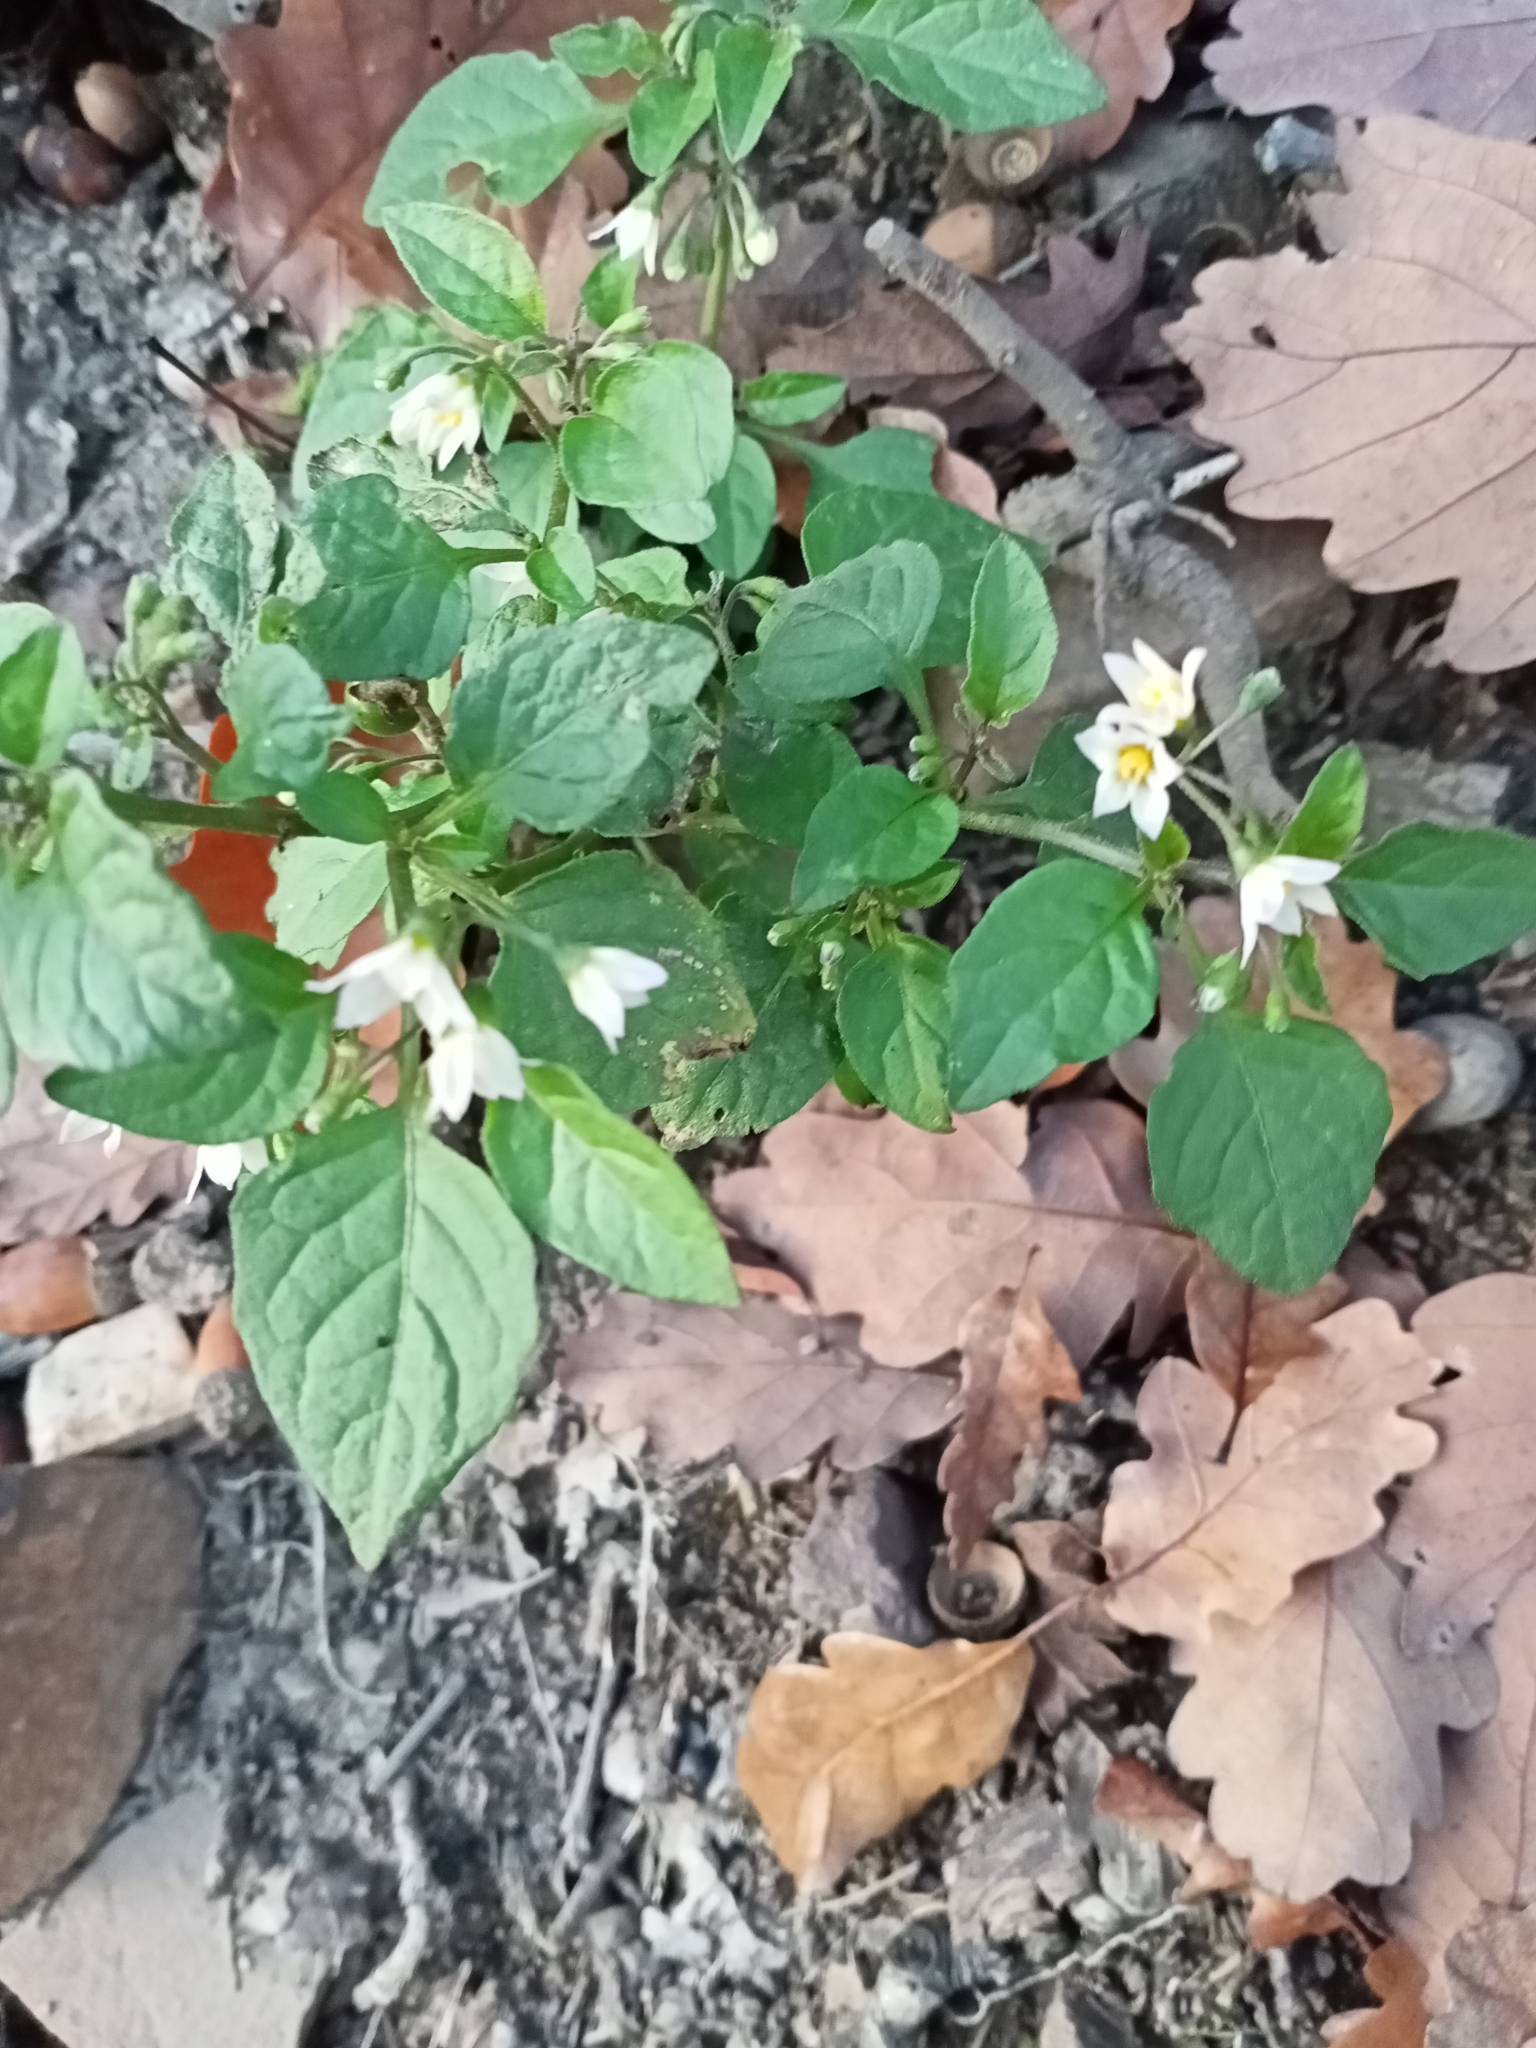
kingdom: Plantae
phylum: Tracheophyta
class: Magnoliopsida
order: Solanales
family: Solanaceae
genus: Solanum
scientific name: Solanum nigrum
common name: Black nightshade
